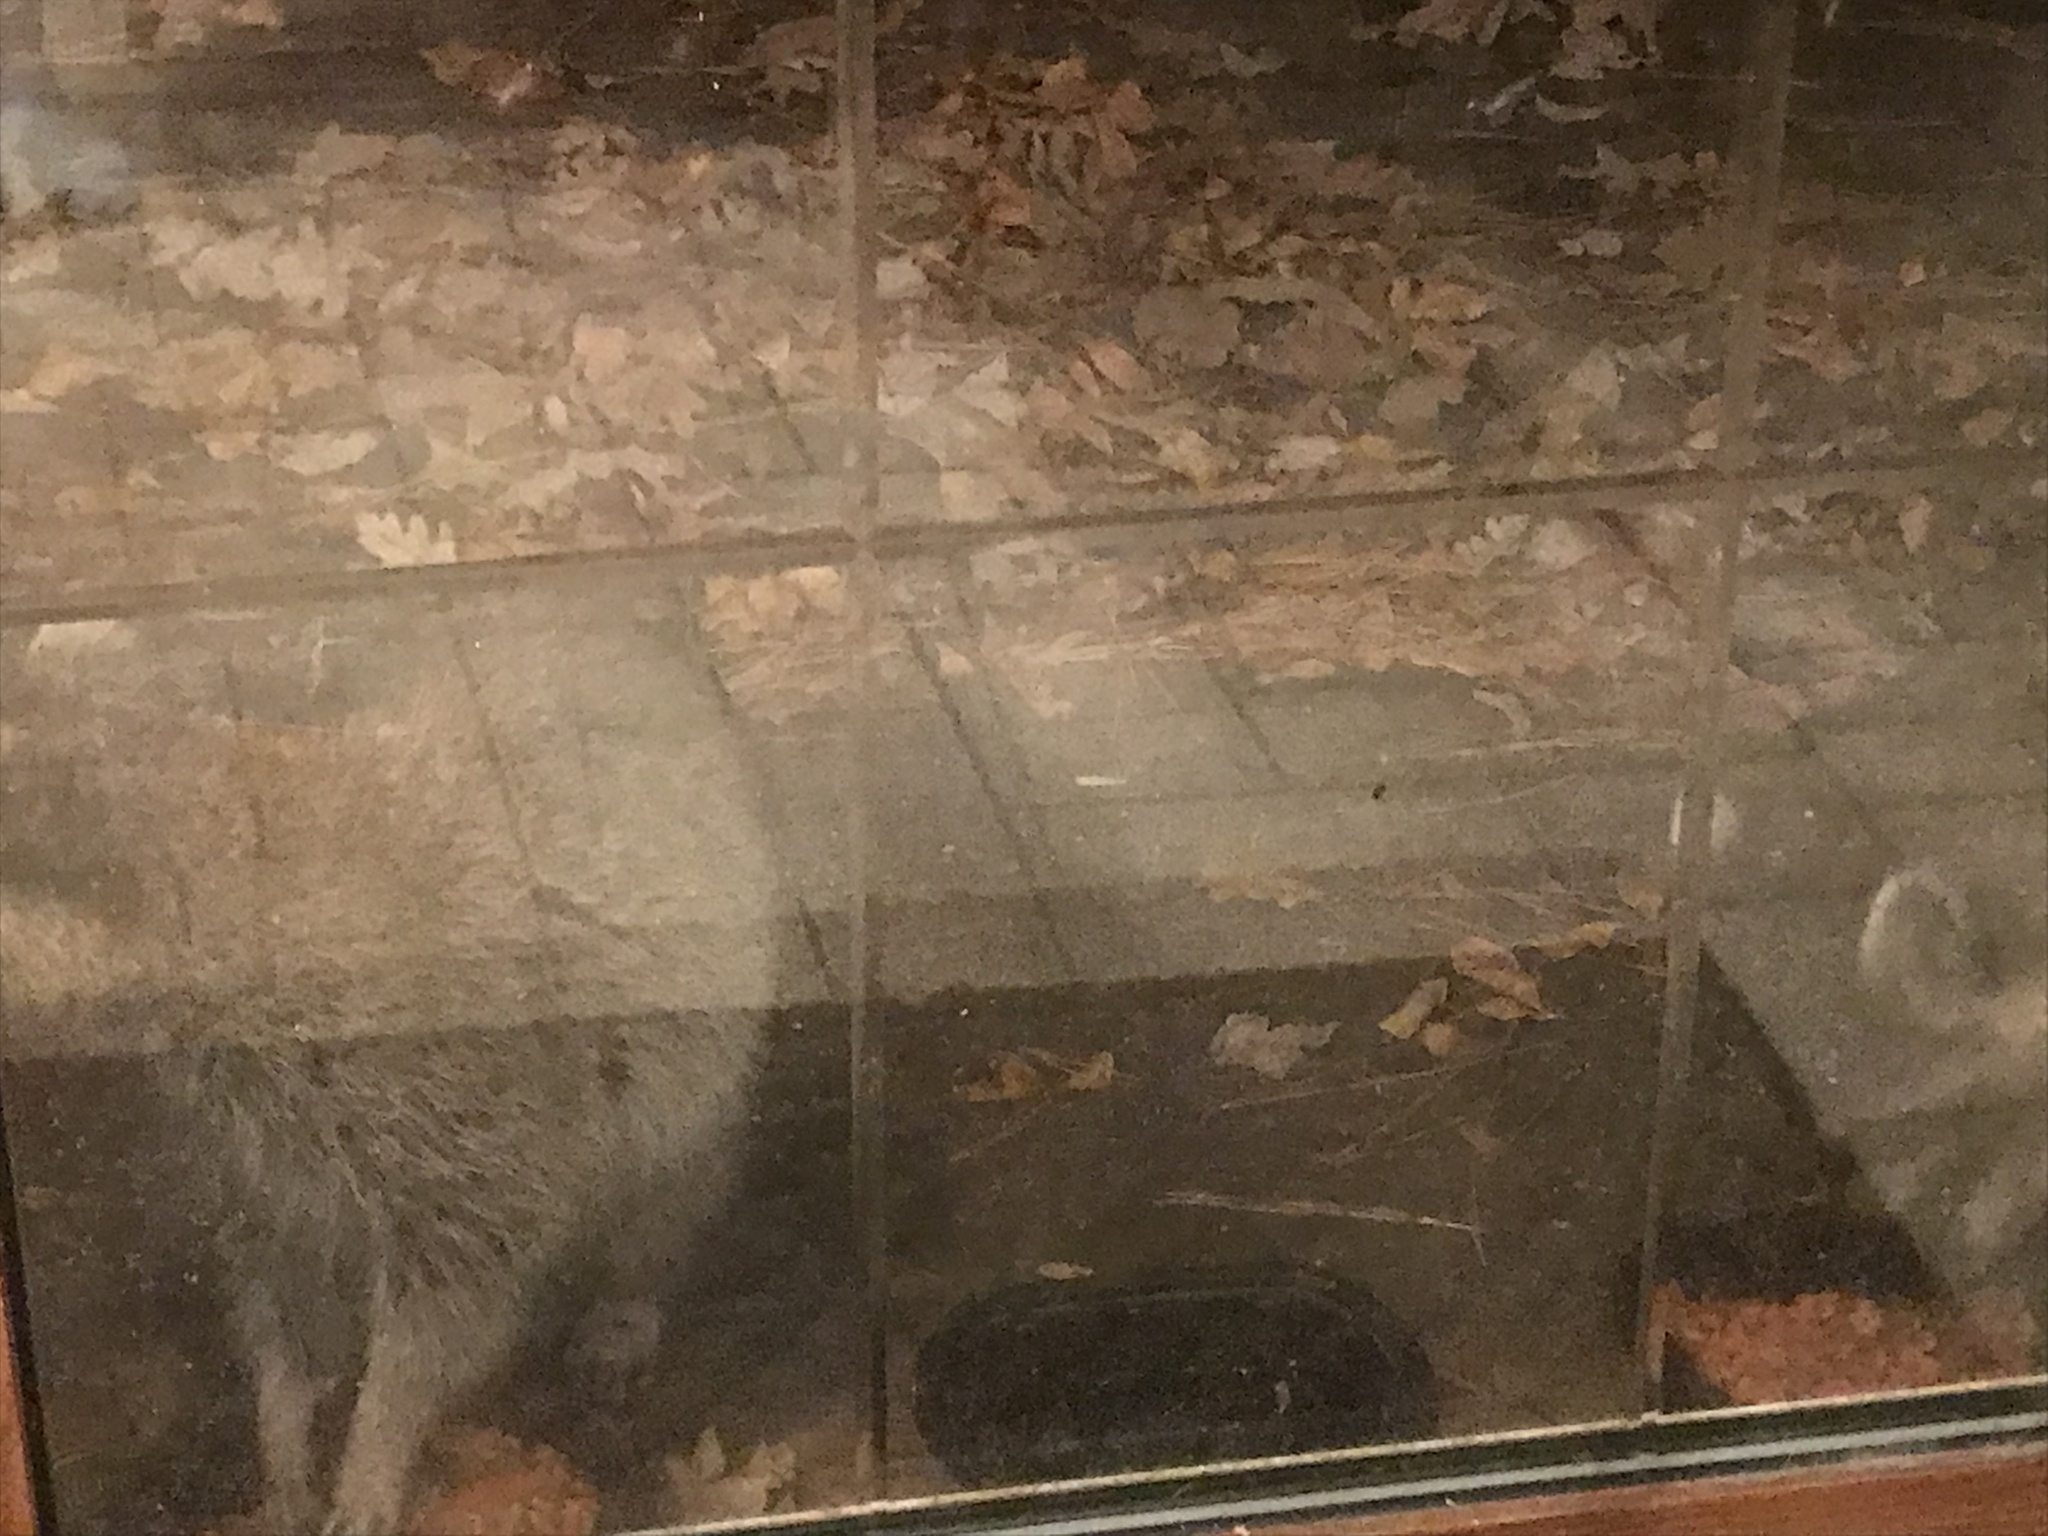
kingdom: Animalia
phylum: Chordata
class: Mammalia
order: Carnivora
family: Procyonidae
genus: Procyon
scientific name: Procyon lotor
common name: Raccoon
